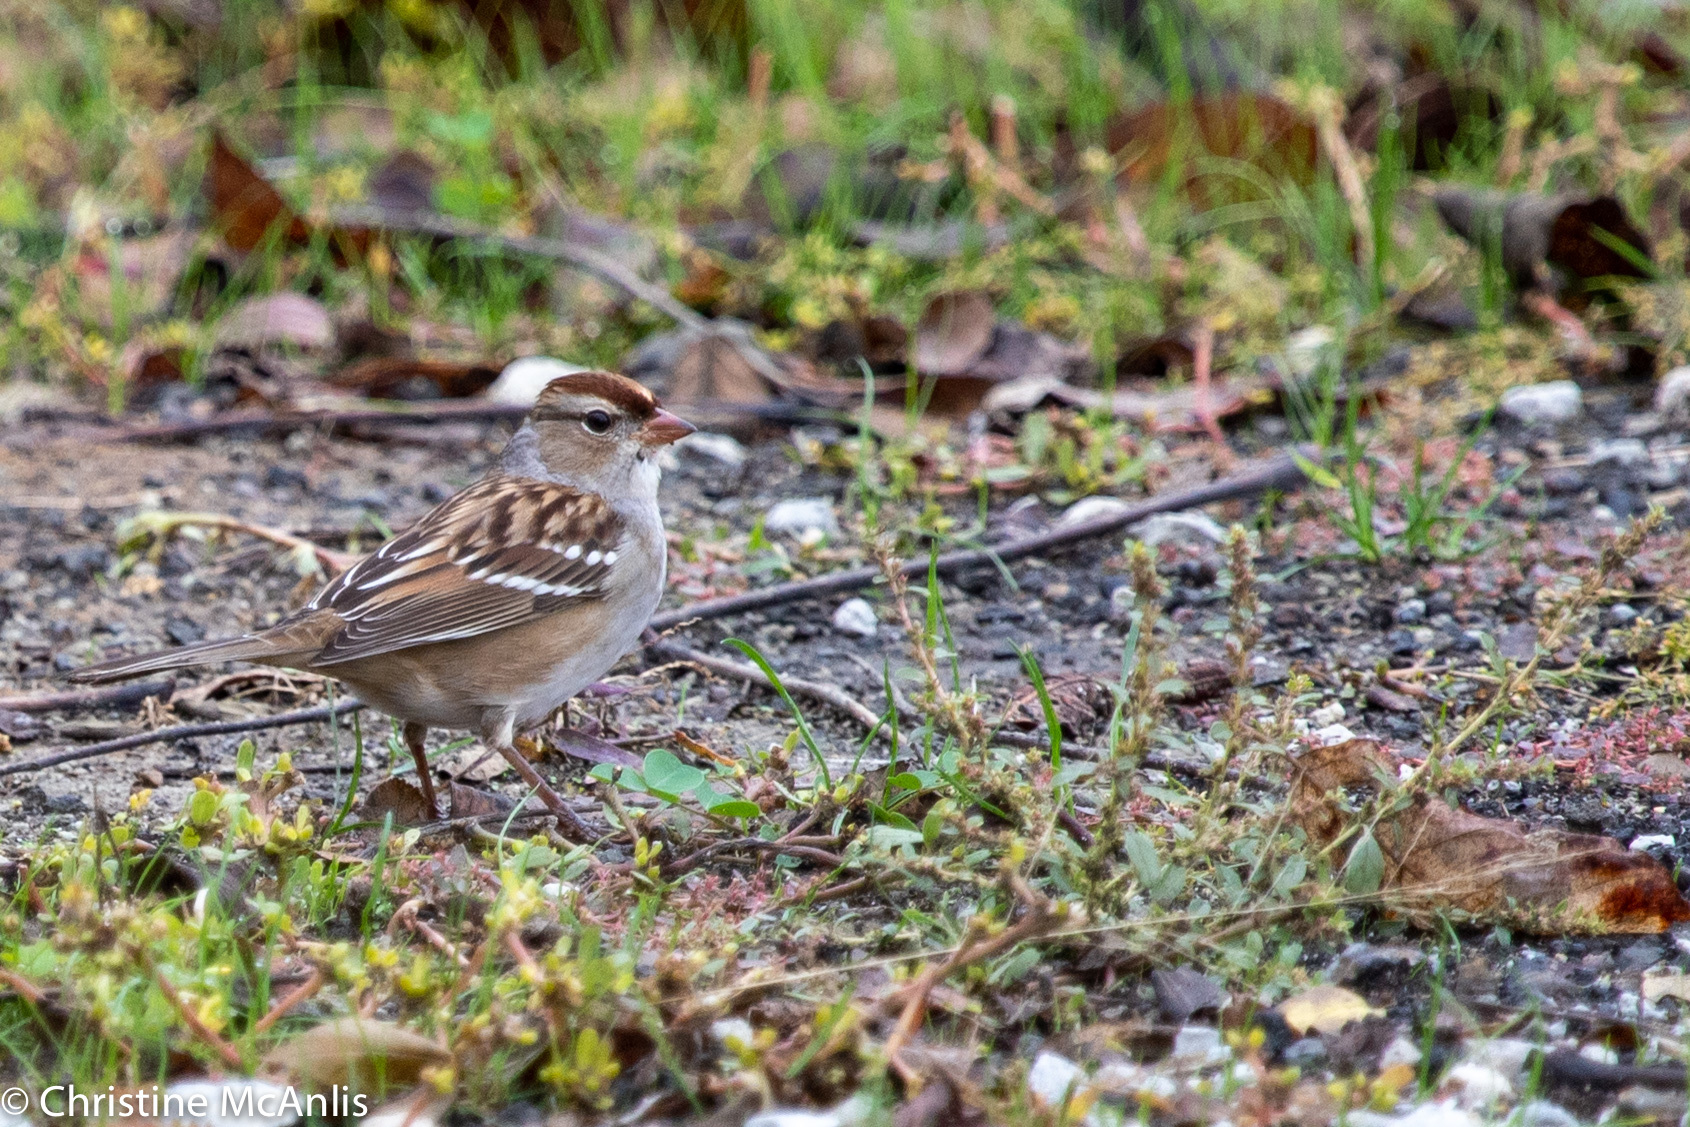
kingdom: Animalia
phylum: Chordata
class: Aves
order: Passeriformes
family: Passerellidae
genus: Zonotrichia
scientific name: Zonotrichia leucophrys
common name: White-crowned sparrow
